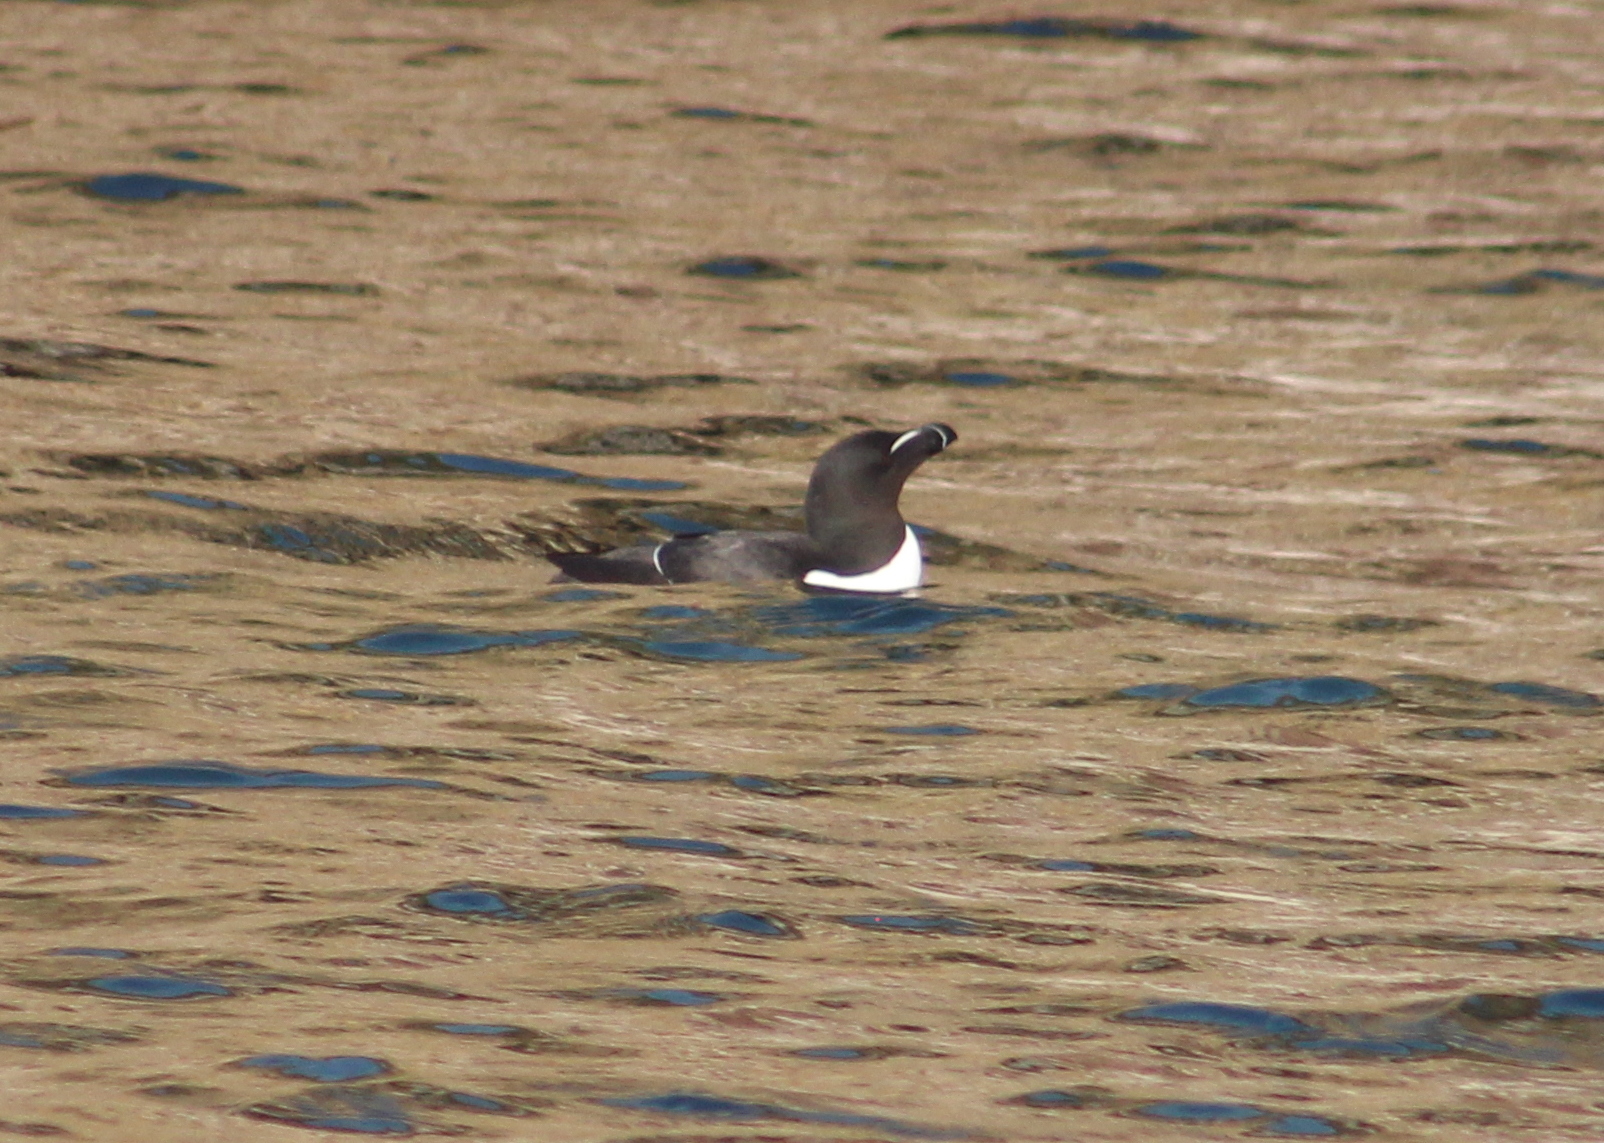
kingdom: Animalia
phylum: Chordata
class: Aves
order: Charadriiformes
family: Alcidae
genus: Alca
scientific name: Alca torda
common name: Razorbill
